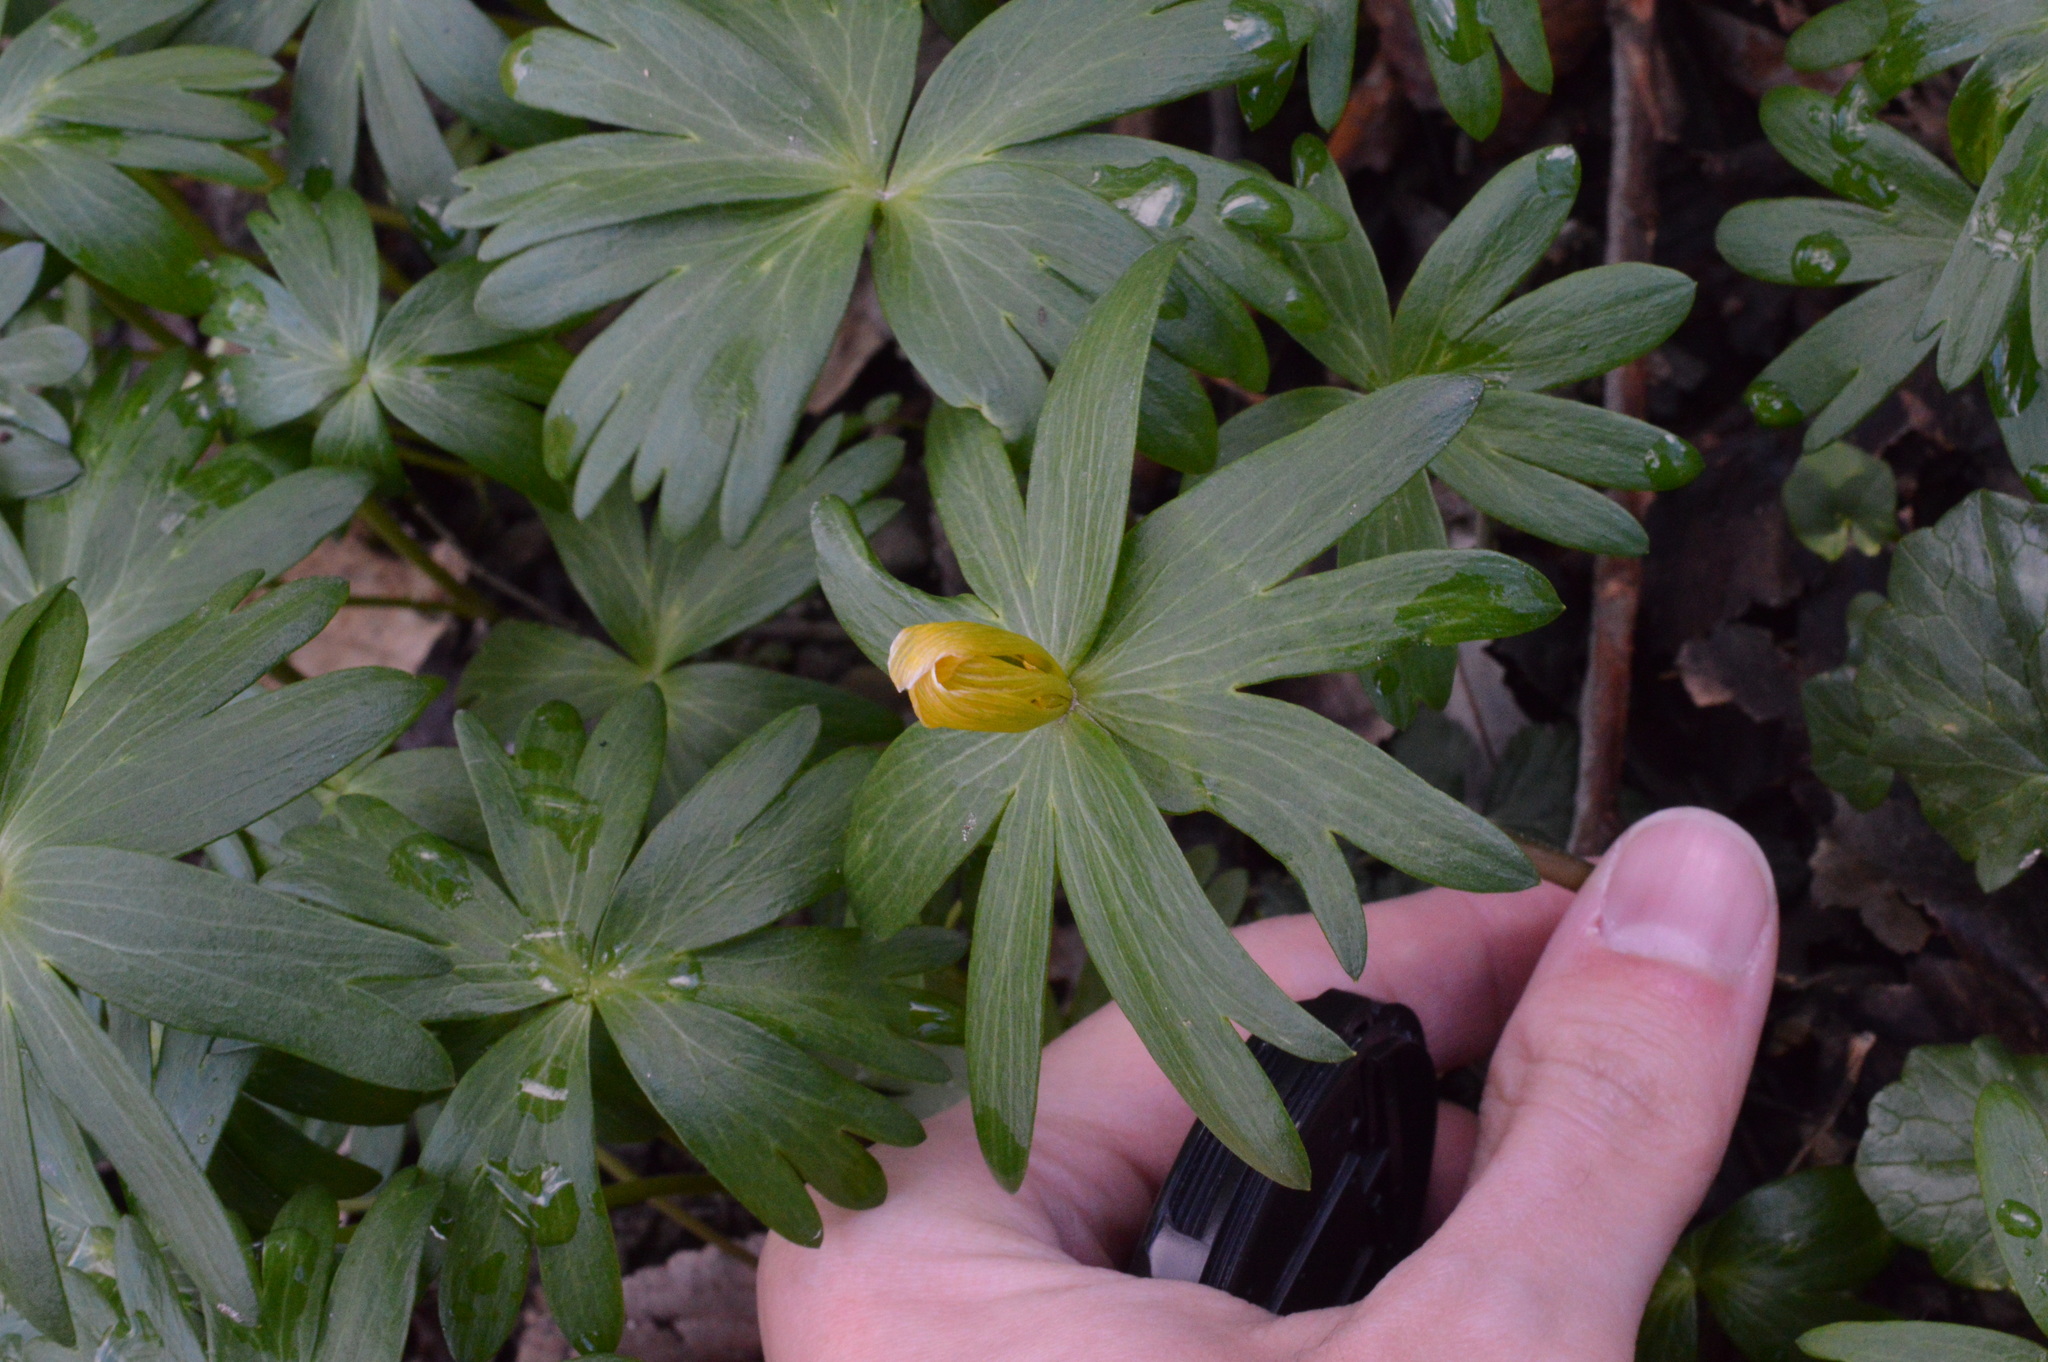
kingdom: Plantae
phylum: Tracheophyta
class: Magnoliopsida
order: Ranunculales
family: Ranunculaceae
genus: Eranthis
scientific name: Eranthis hyemalis
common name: Winter aconite
